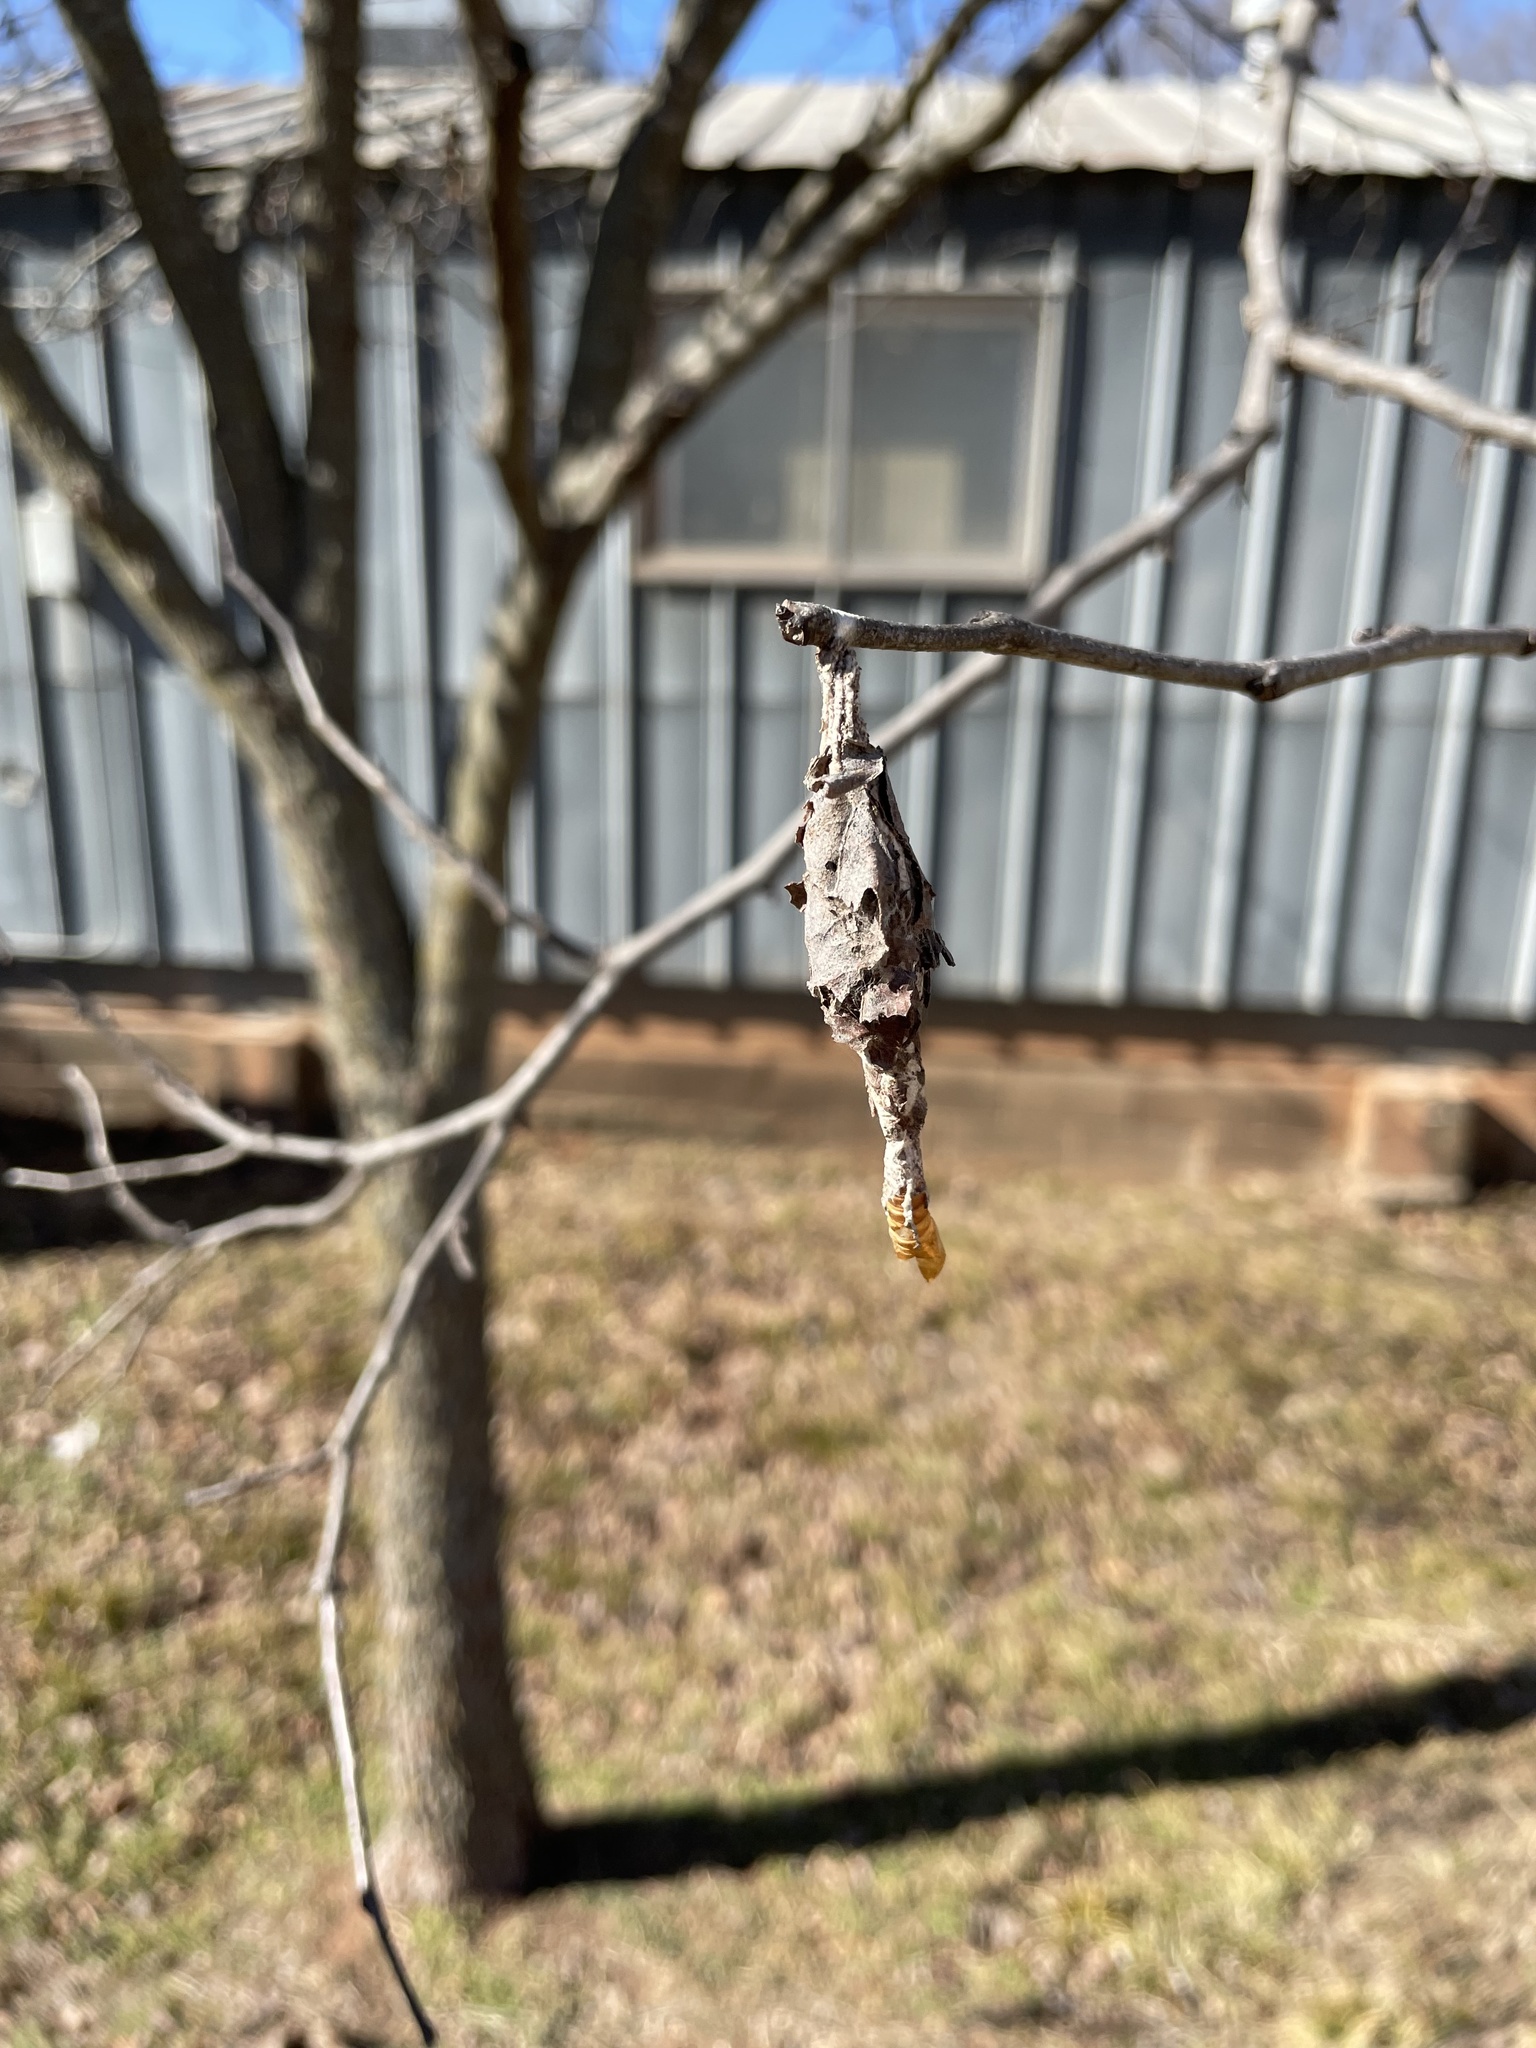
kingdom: Animalia
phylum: Arthropoda
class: Insecta
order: Lepidoptera
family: Psychidae
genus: Thyridopteryx
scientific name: Thyridopteryx ephemeraeformis
